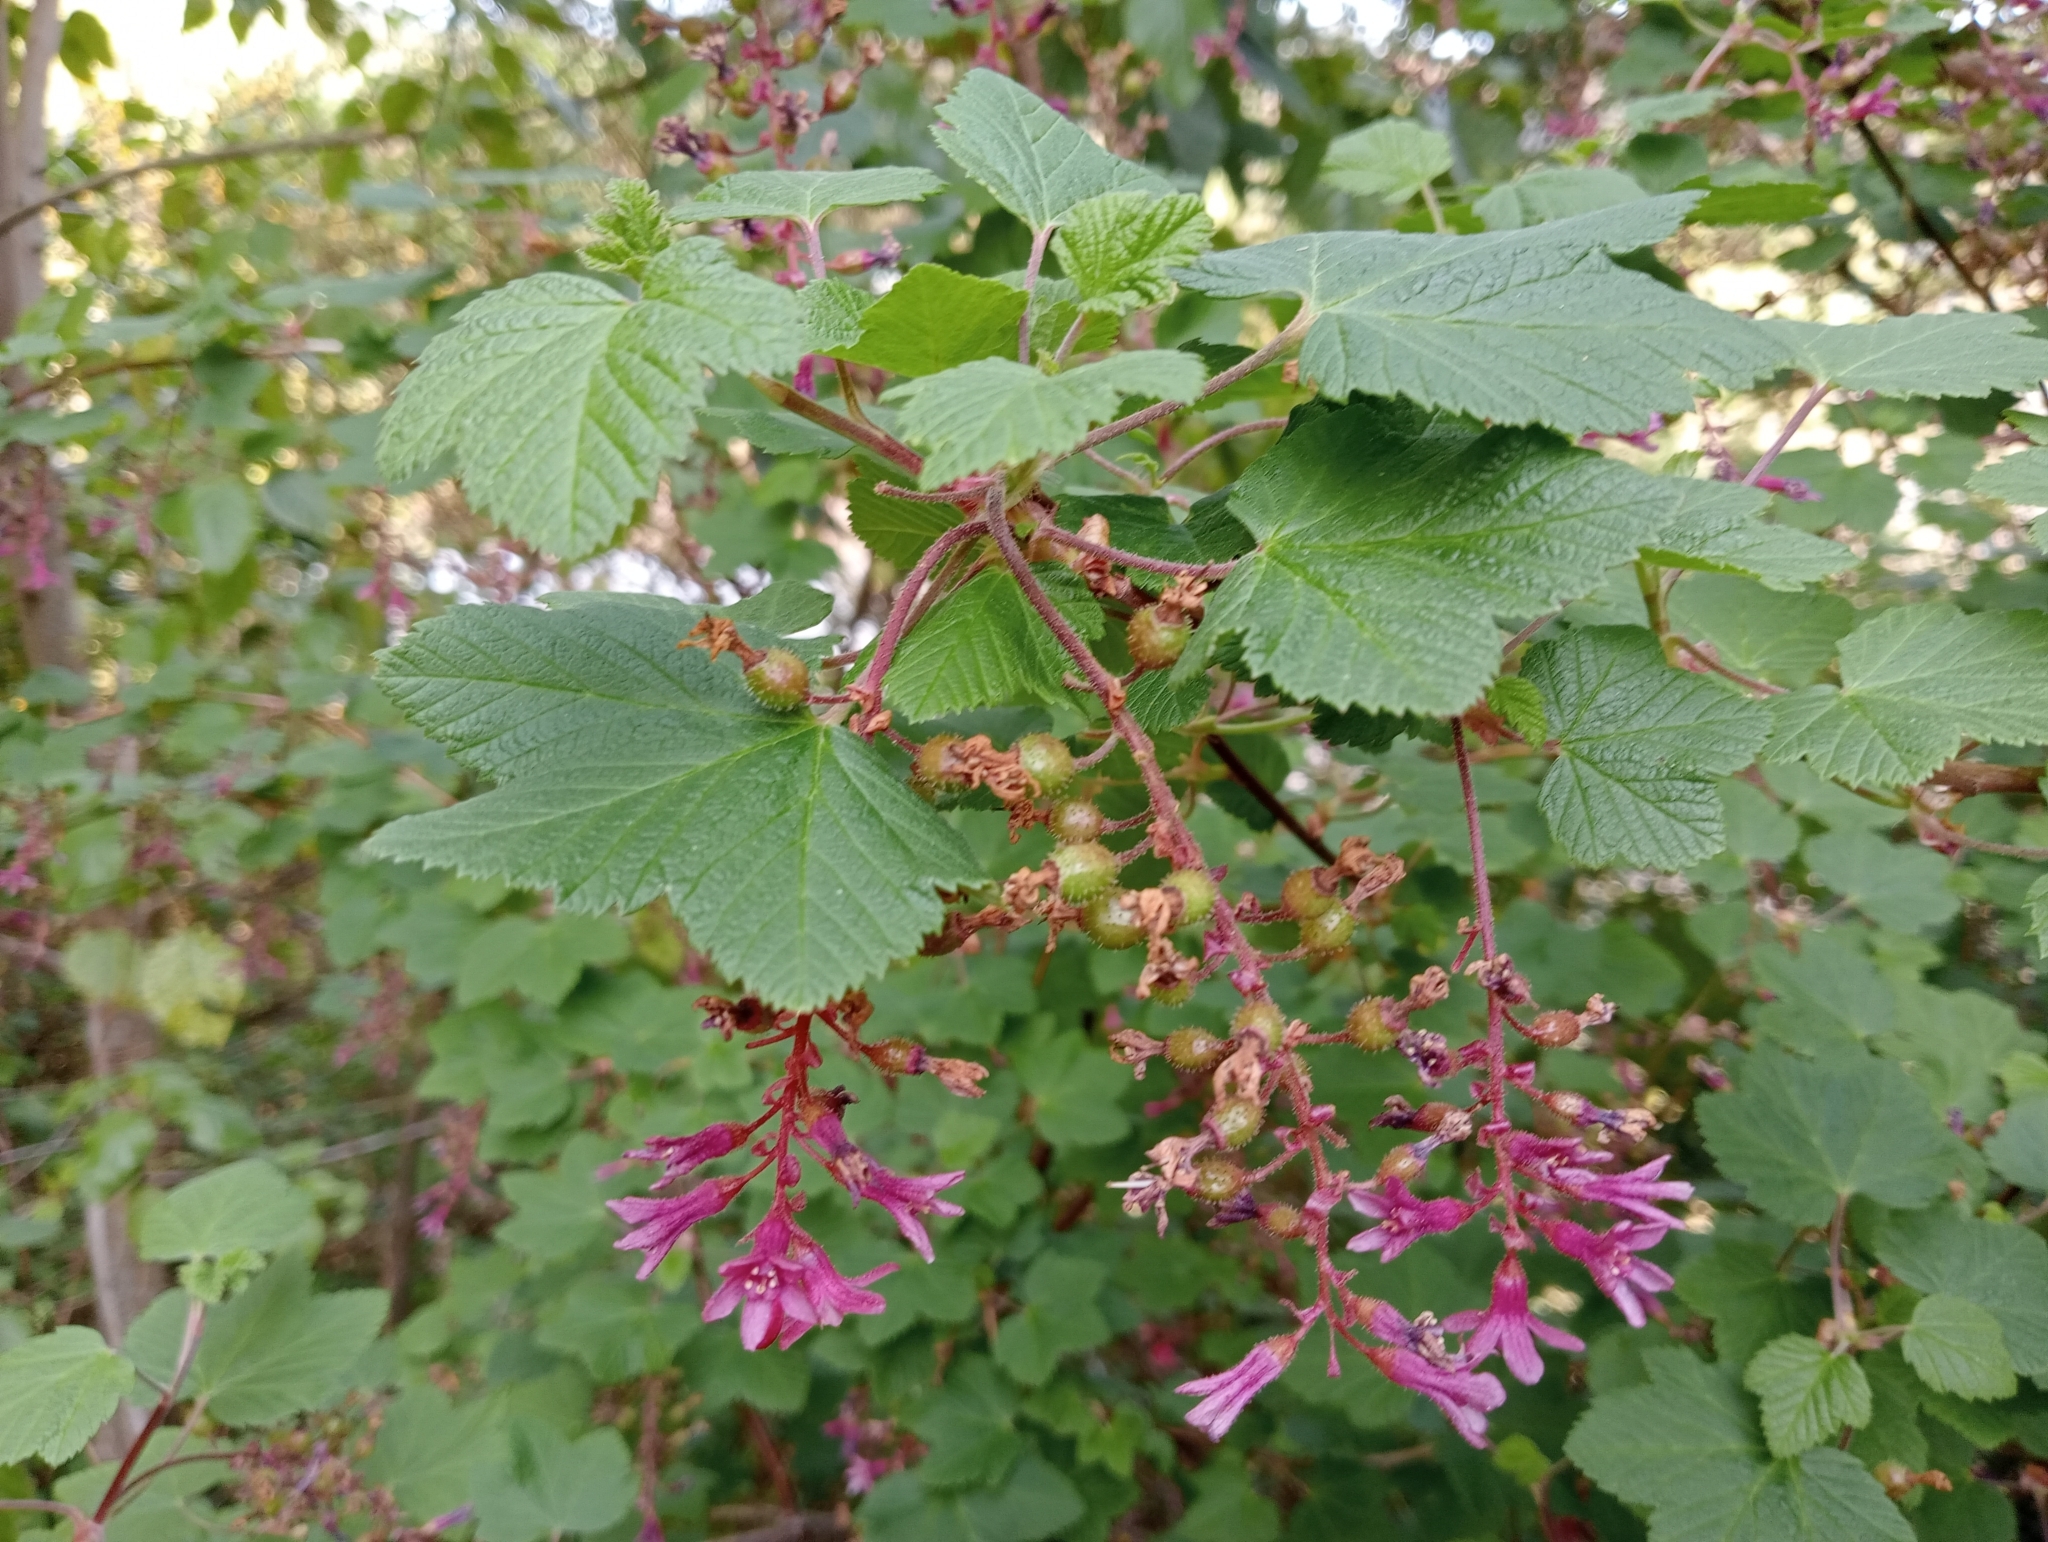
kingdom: Plantae
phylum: Tracheophyta
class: Magnoliopsida
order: Saxifragales
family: Grossulariaceae
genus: Ribes
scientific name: Ribes sanguineum
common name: Flowering currant
